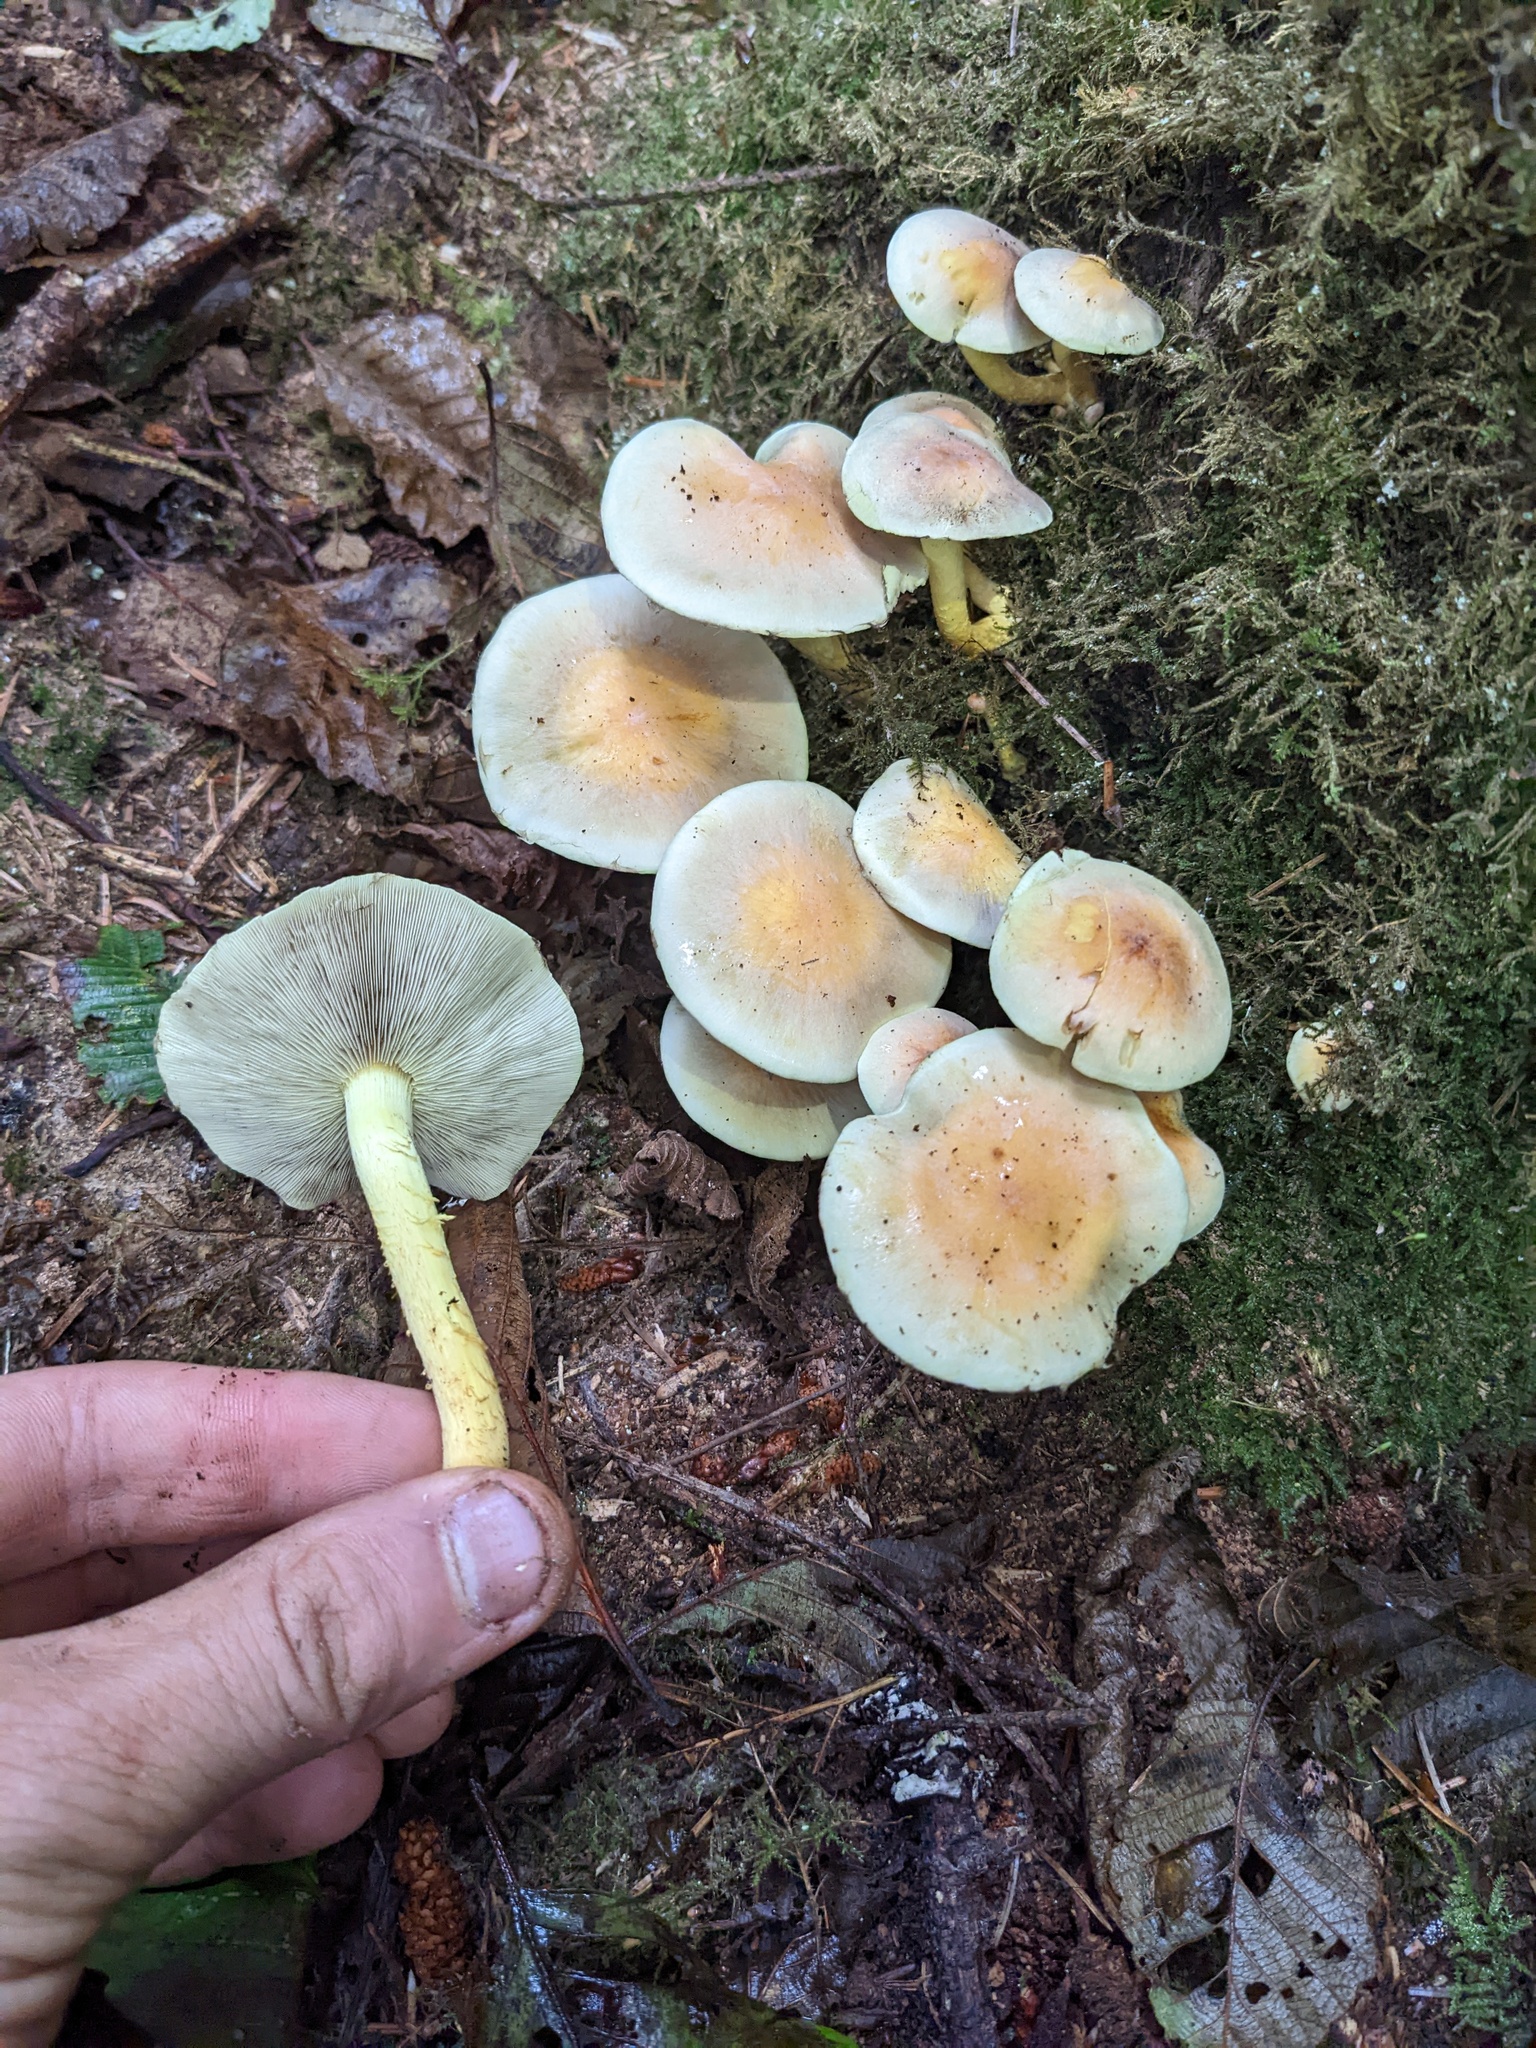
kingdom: Fungi
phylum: Basidiomycota
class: Agaricomycetes
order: Agaricales
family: Strophariaceae
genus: Hypholoma
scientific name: Hypholoma fasciculare
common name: Sulphur tuft
